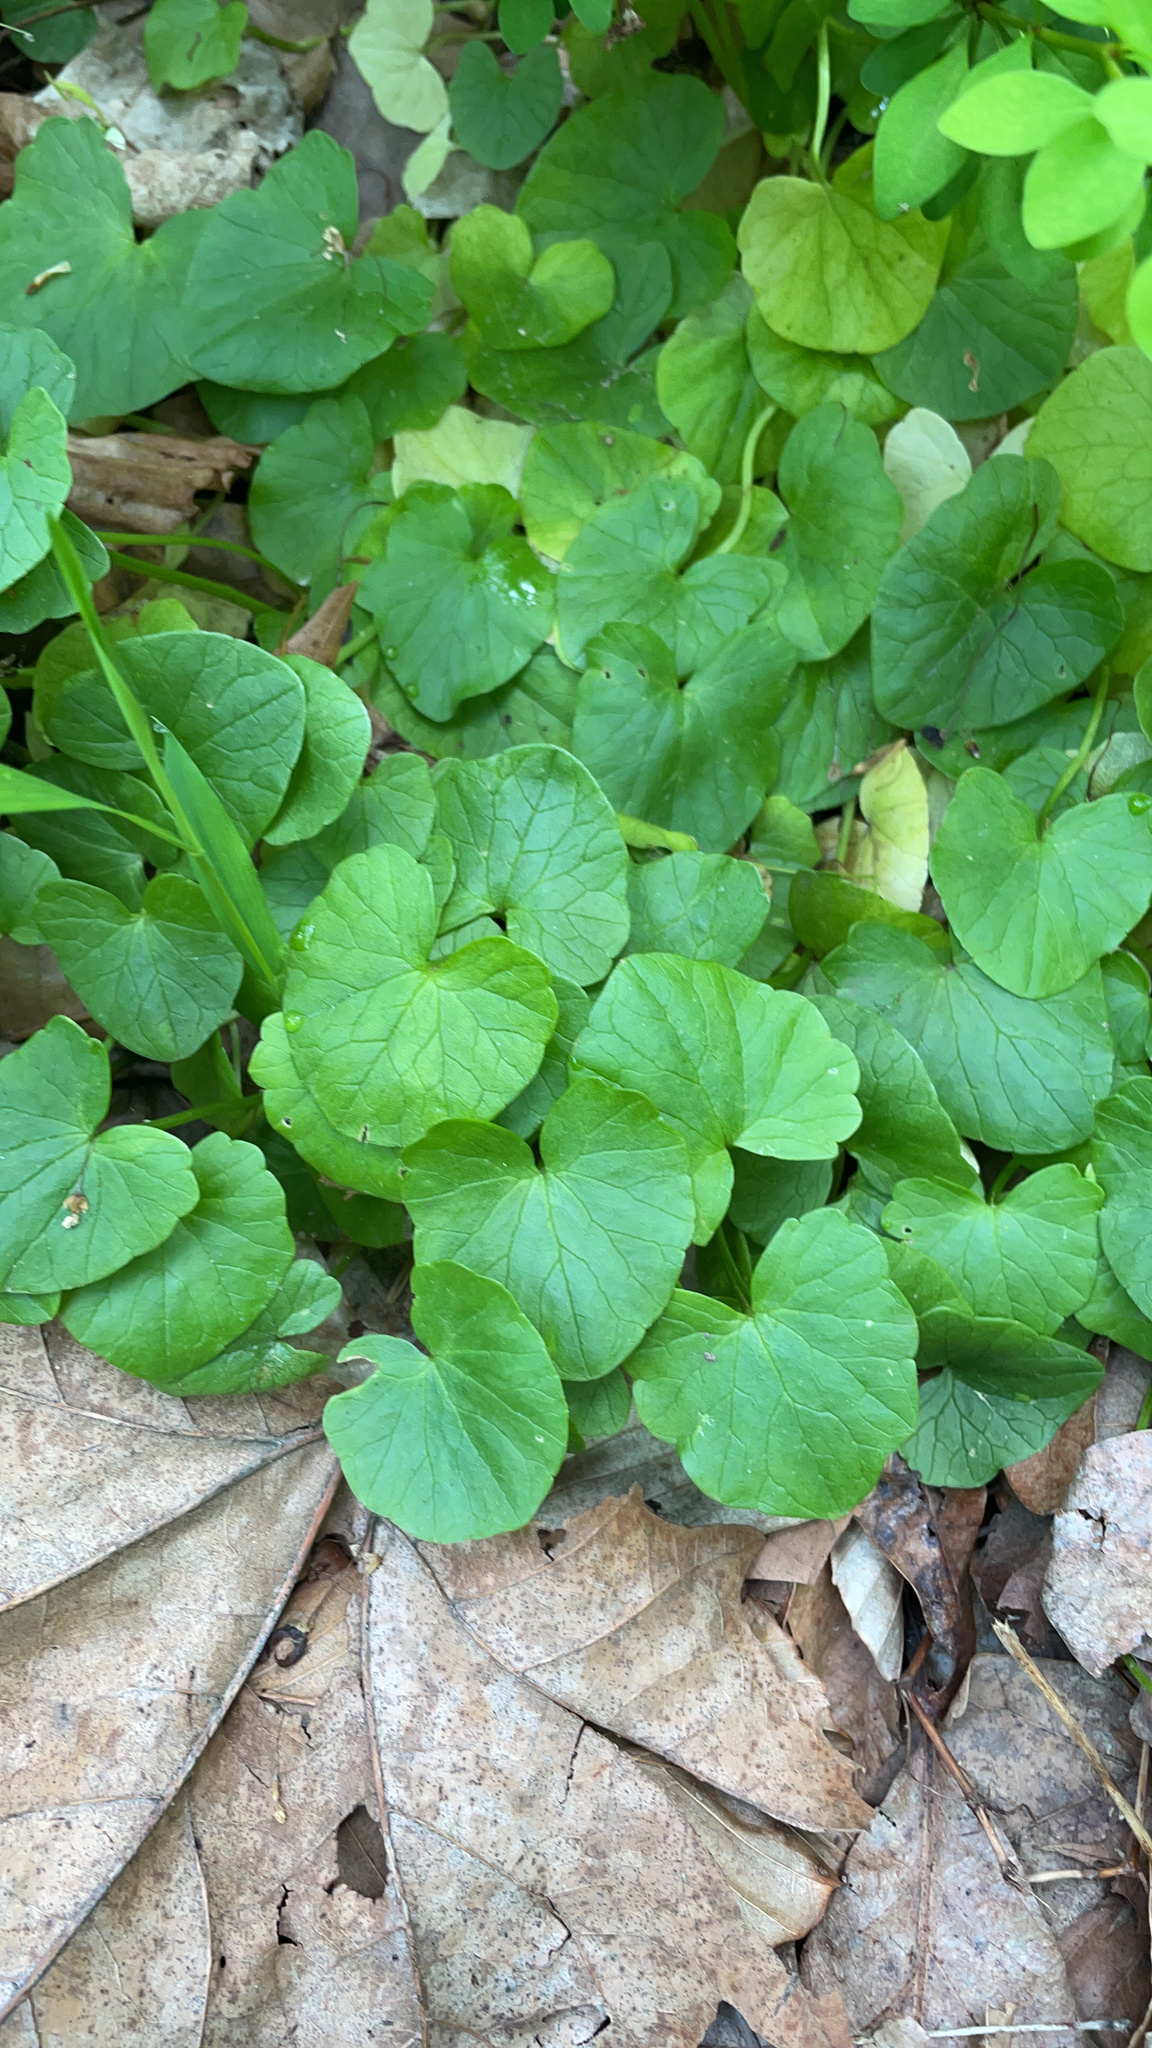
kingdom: Plantae
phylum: Tracheophyta
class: Magnoliopsida
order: Ranunculales
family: Ranunculaceae
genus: Ficaria
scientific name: Ficaria verna
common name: Lesser celandine
